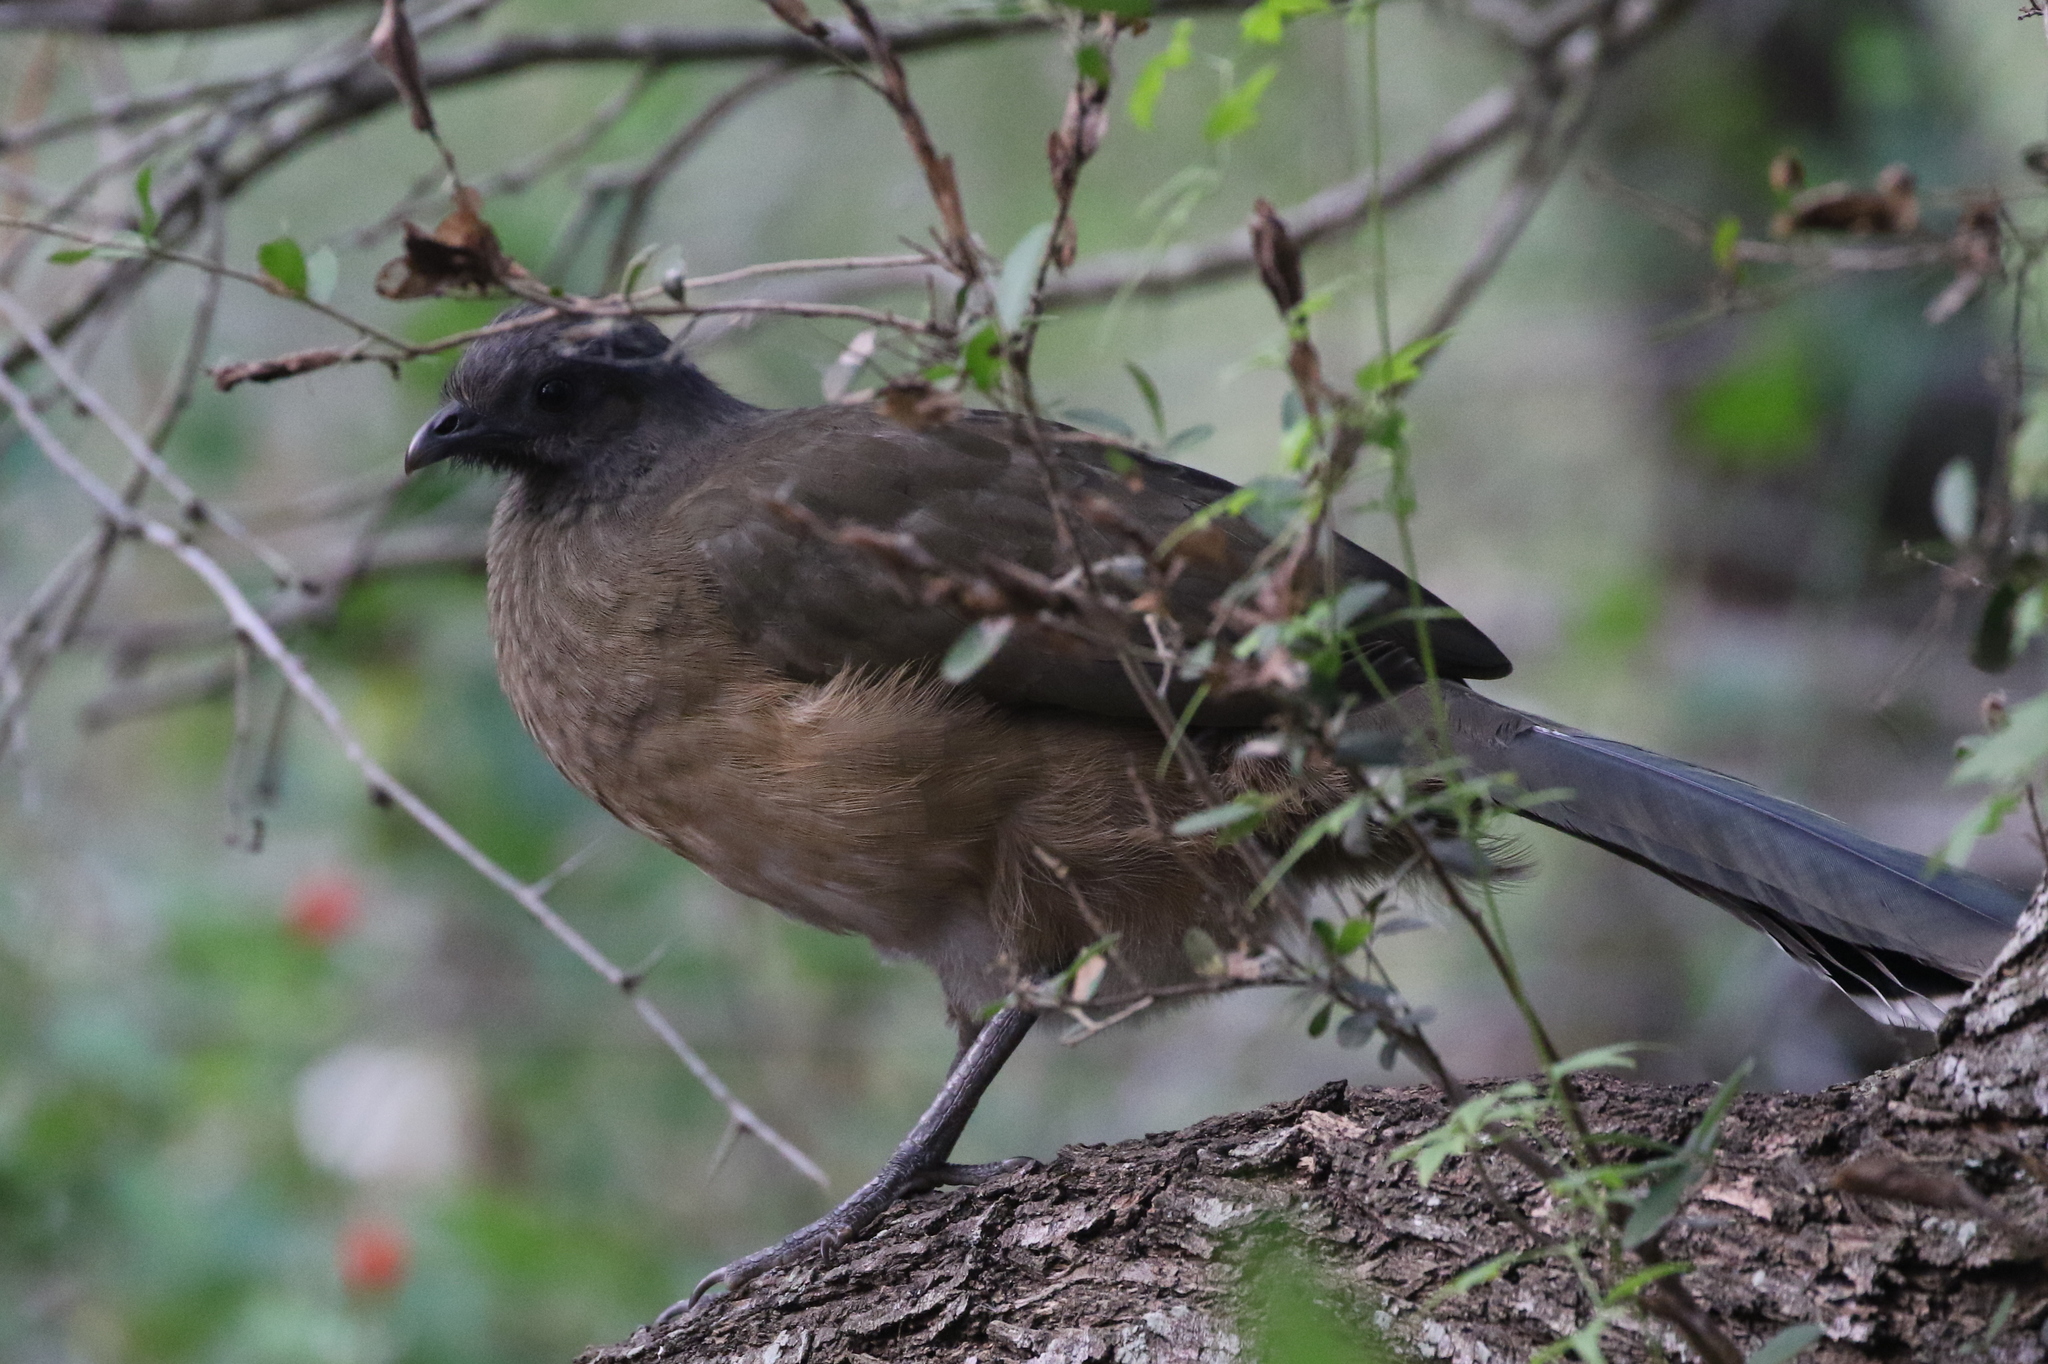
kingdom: Animalia
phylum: Chordata
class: Aves
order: Galliformes
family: Cracidae
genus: Ortalis
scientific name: Ortalis vetula
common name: Plain chachalaca
